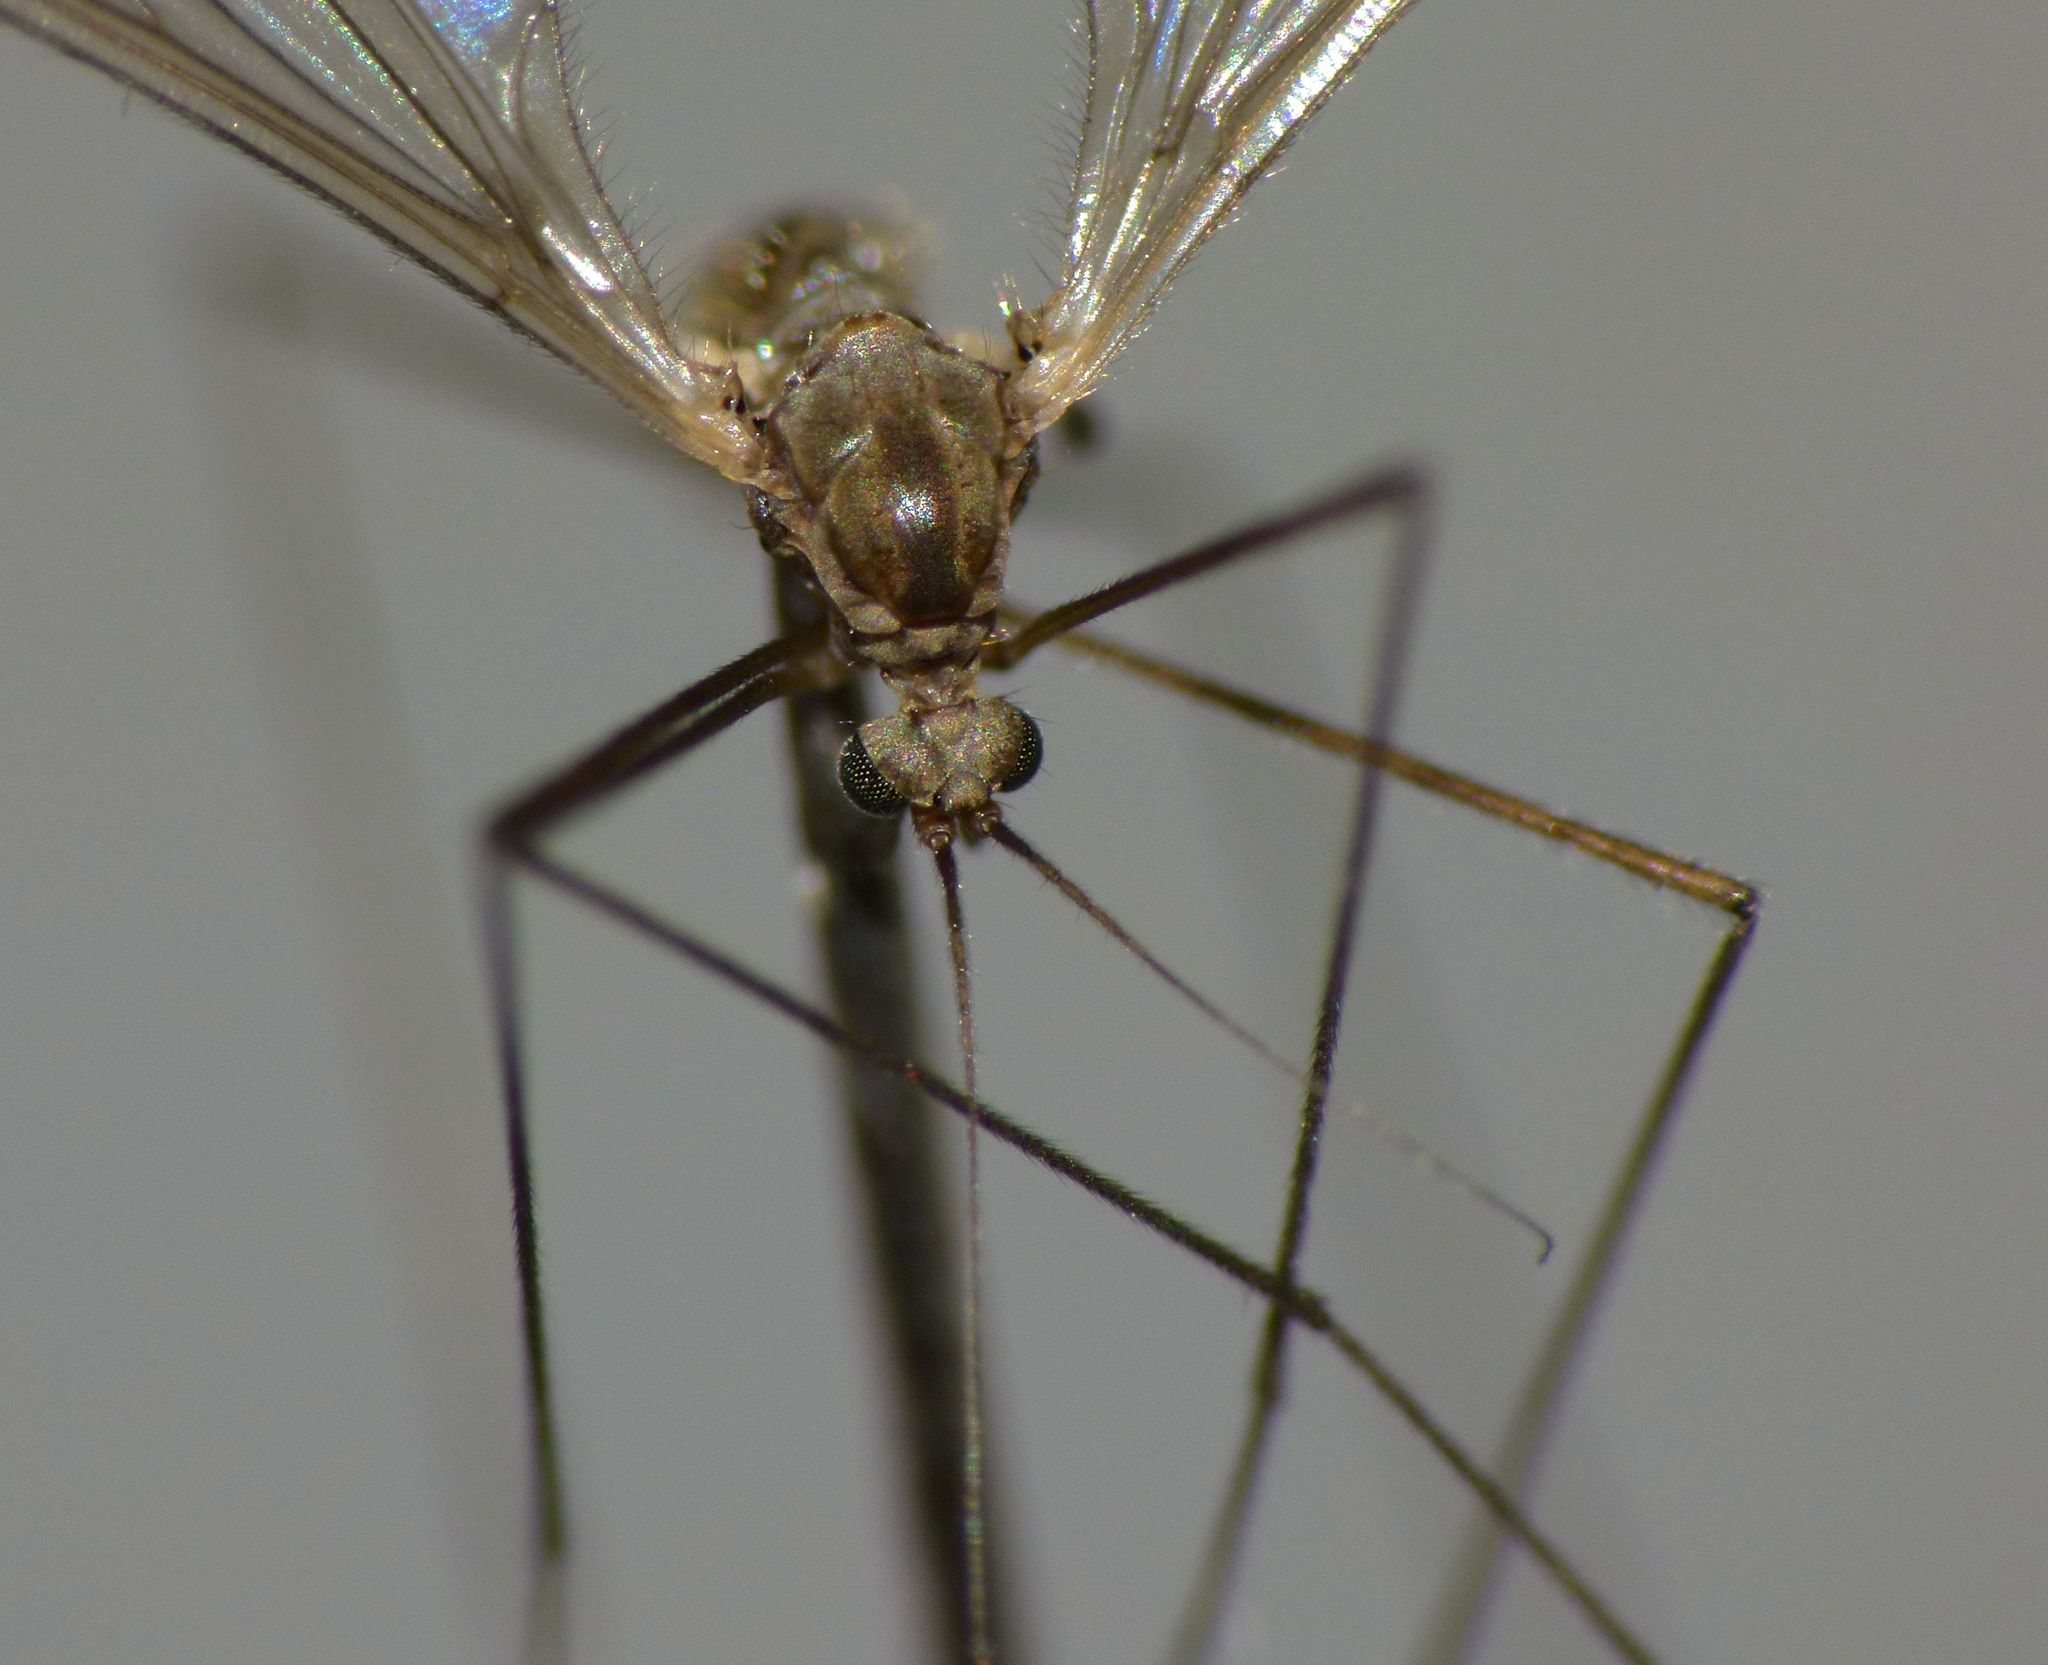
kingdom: Animalia
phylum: Arthropoda
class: Insecta
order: Diptera
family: Trichoceridae
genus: Trichocera
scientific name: Trichocera annulata
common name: Winter gnat
